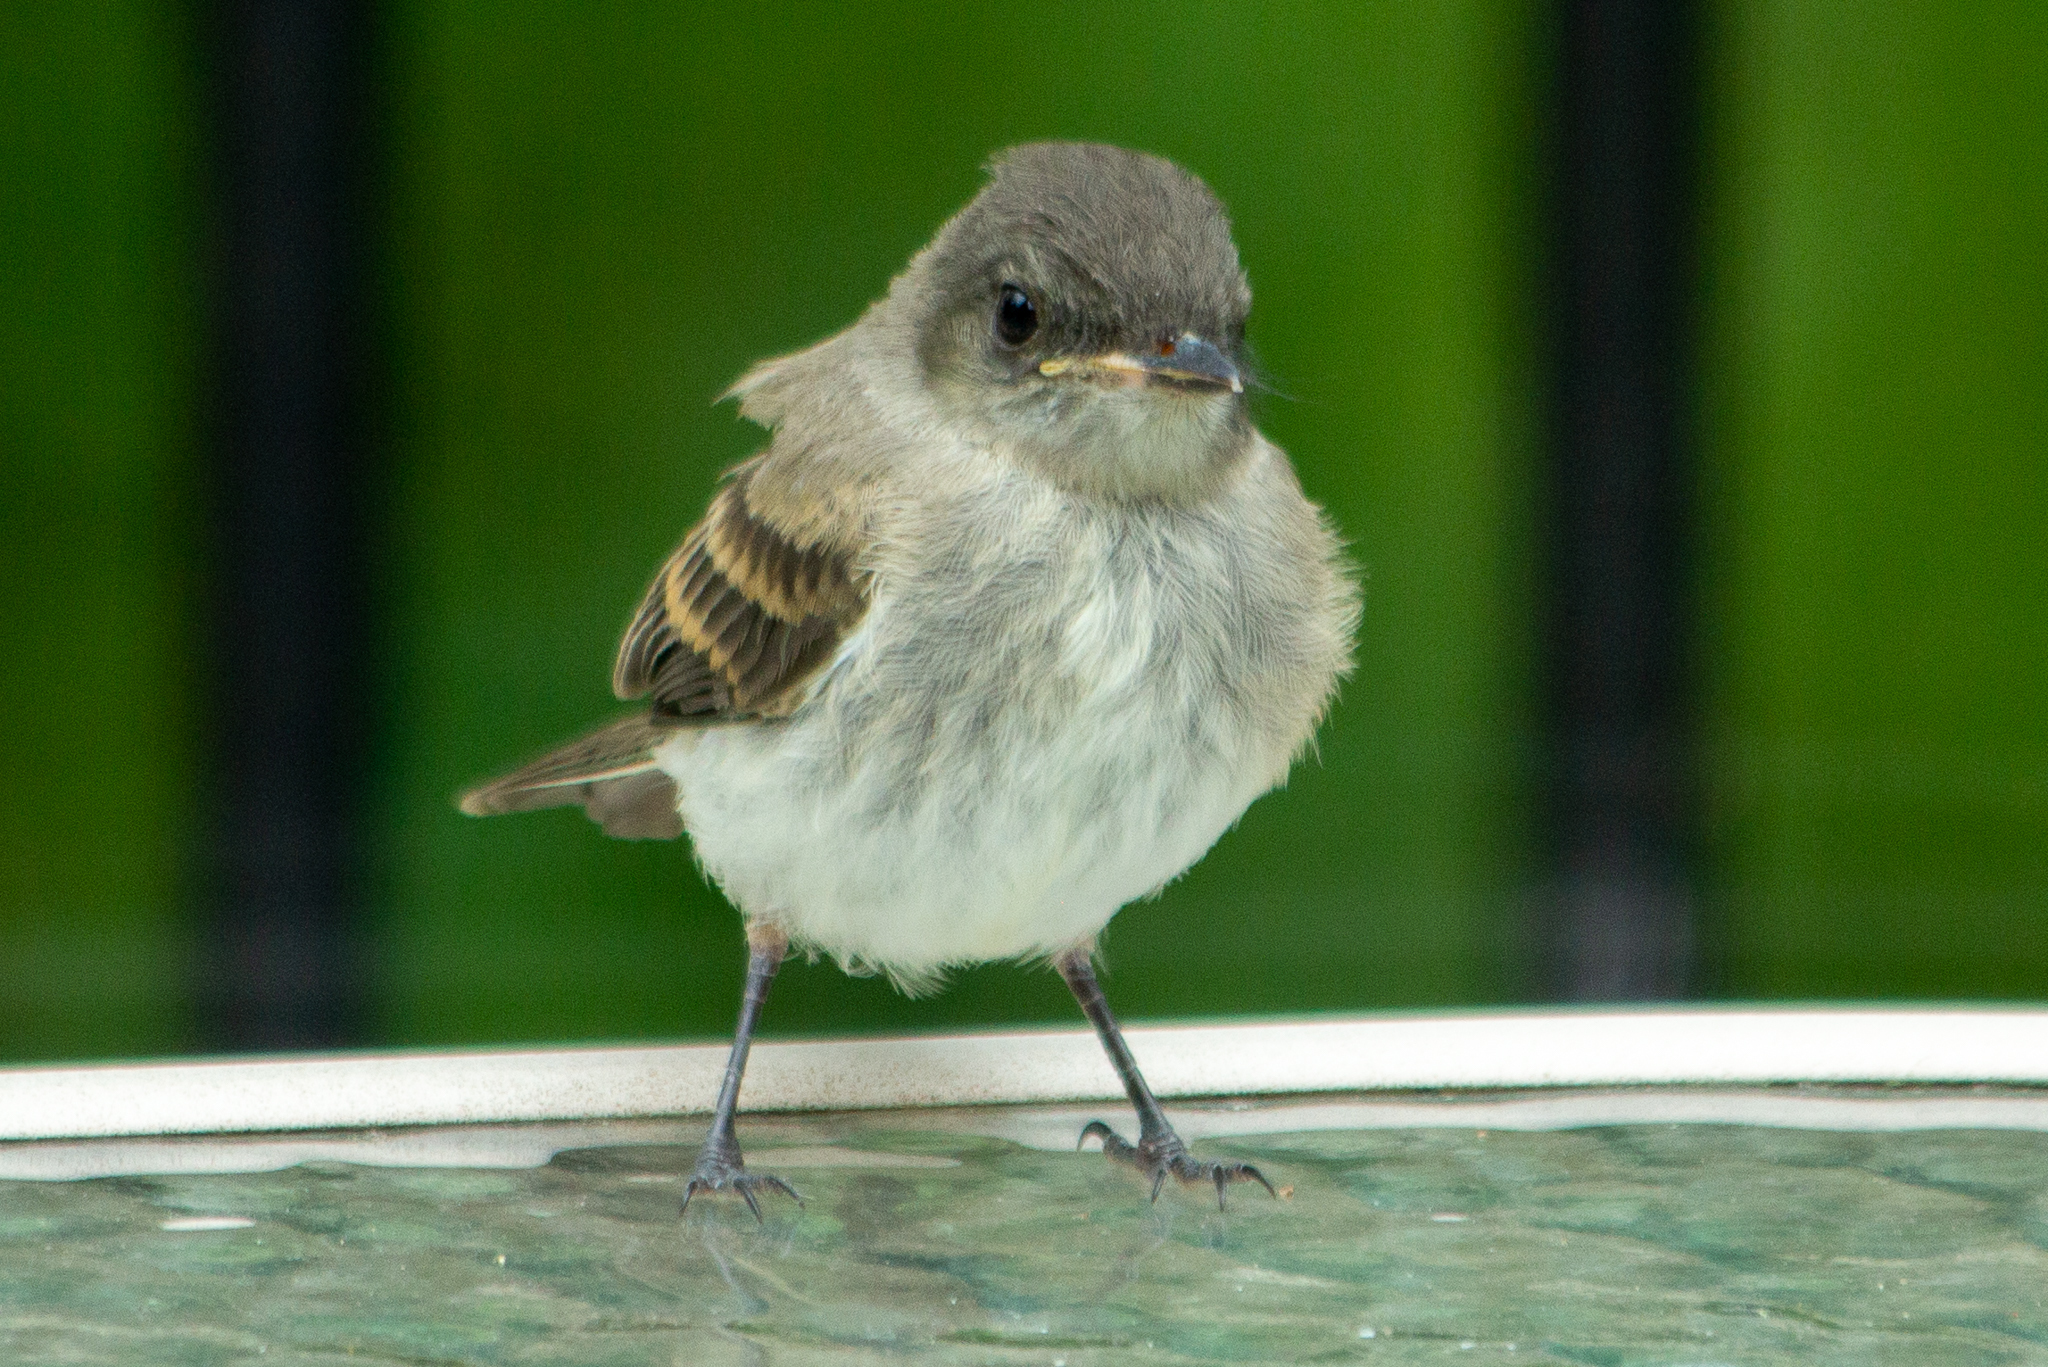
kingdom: Animalia
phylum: Chordata
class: Aves
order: Passeriformes
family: Tyrannidae
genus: Sayornis
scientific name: Sayornis phoebe
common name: Eastern phoebe
